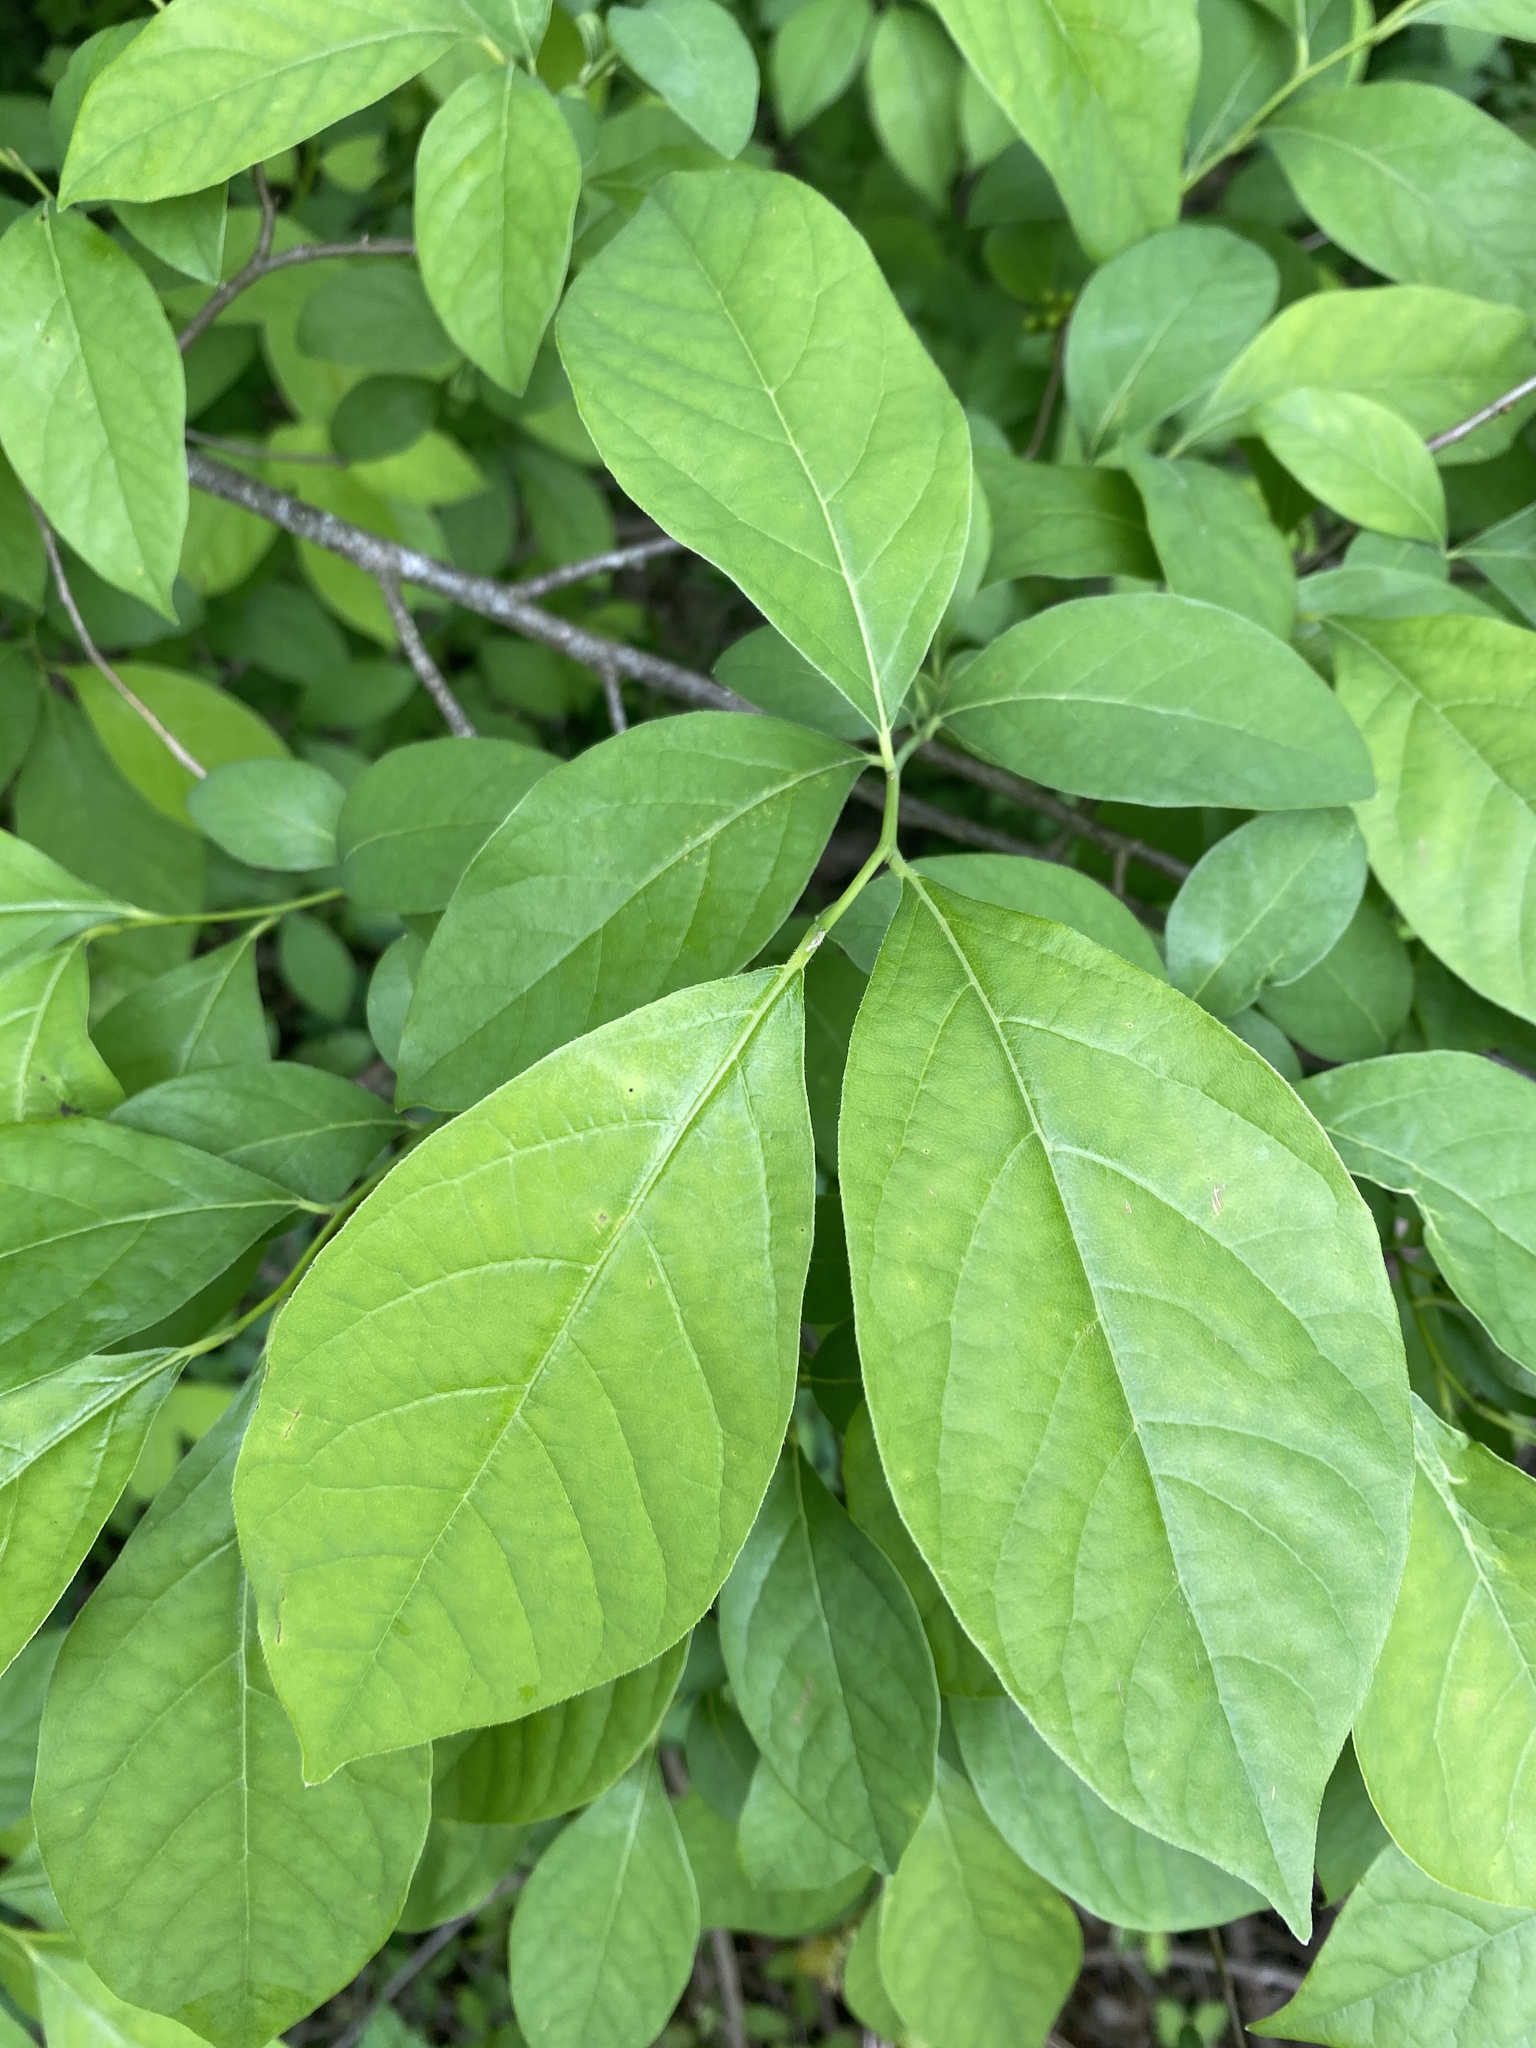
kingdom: Plantae
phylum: Tracheophyta
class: Magnoliopsida
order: Laurales
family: Lauraceae
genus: Lindera
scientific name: Lindera benzoin
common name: Spicebush
